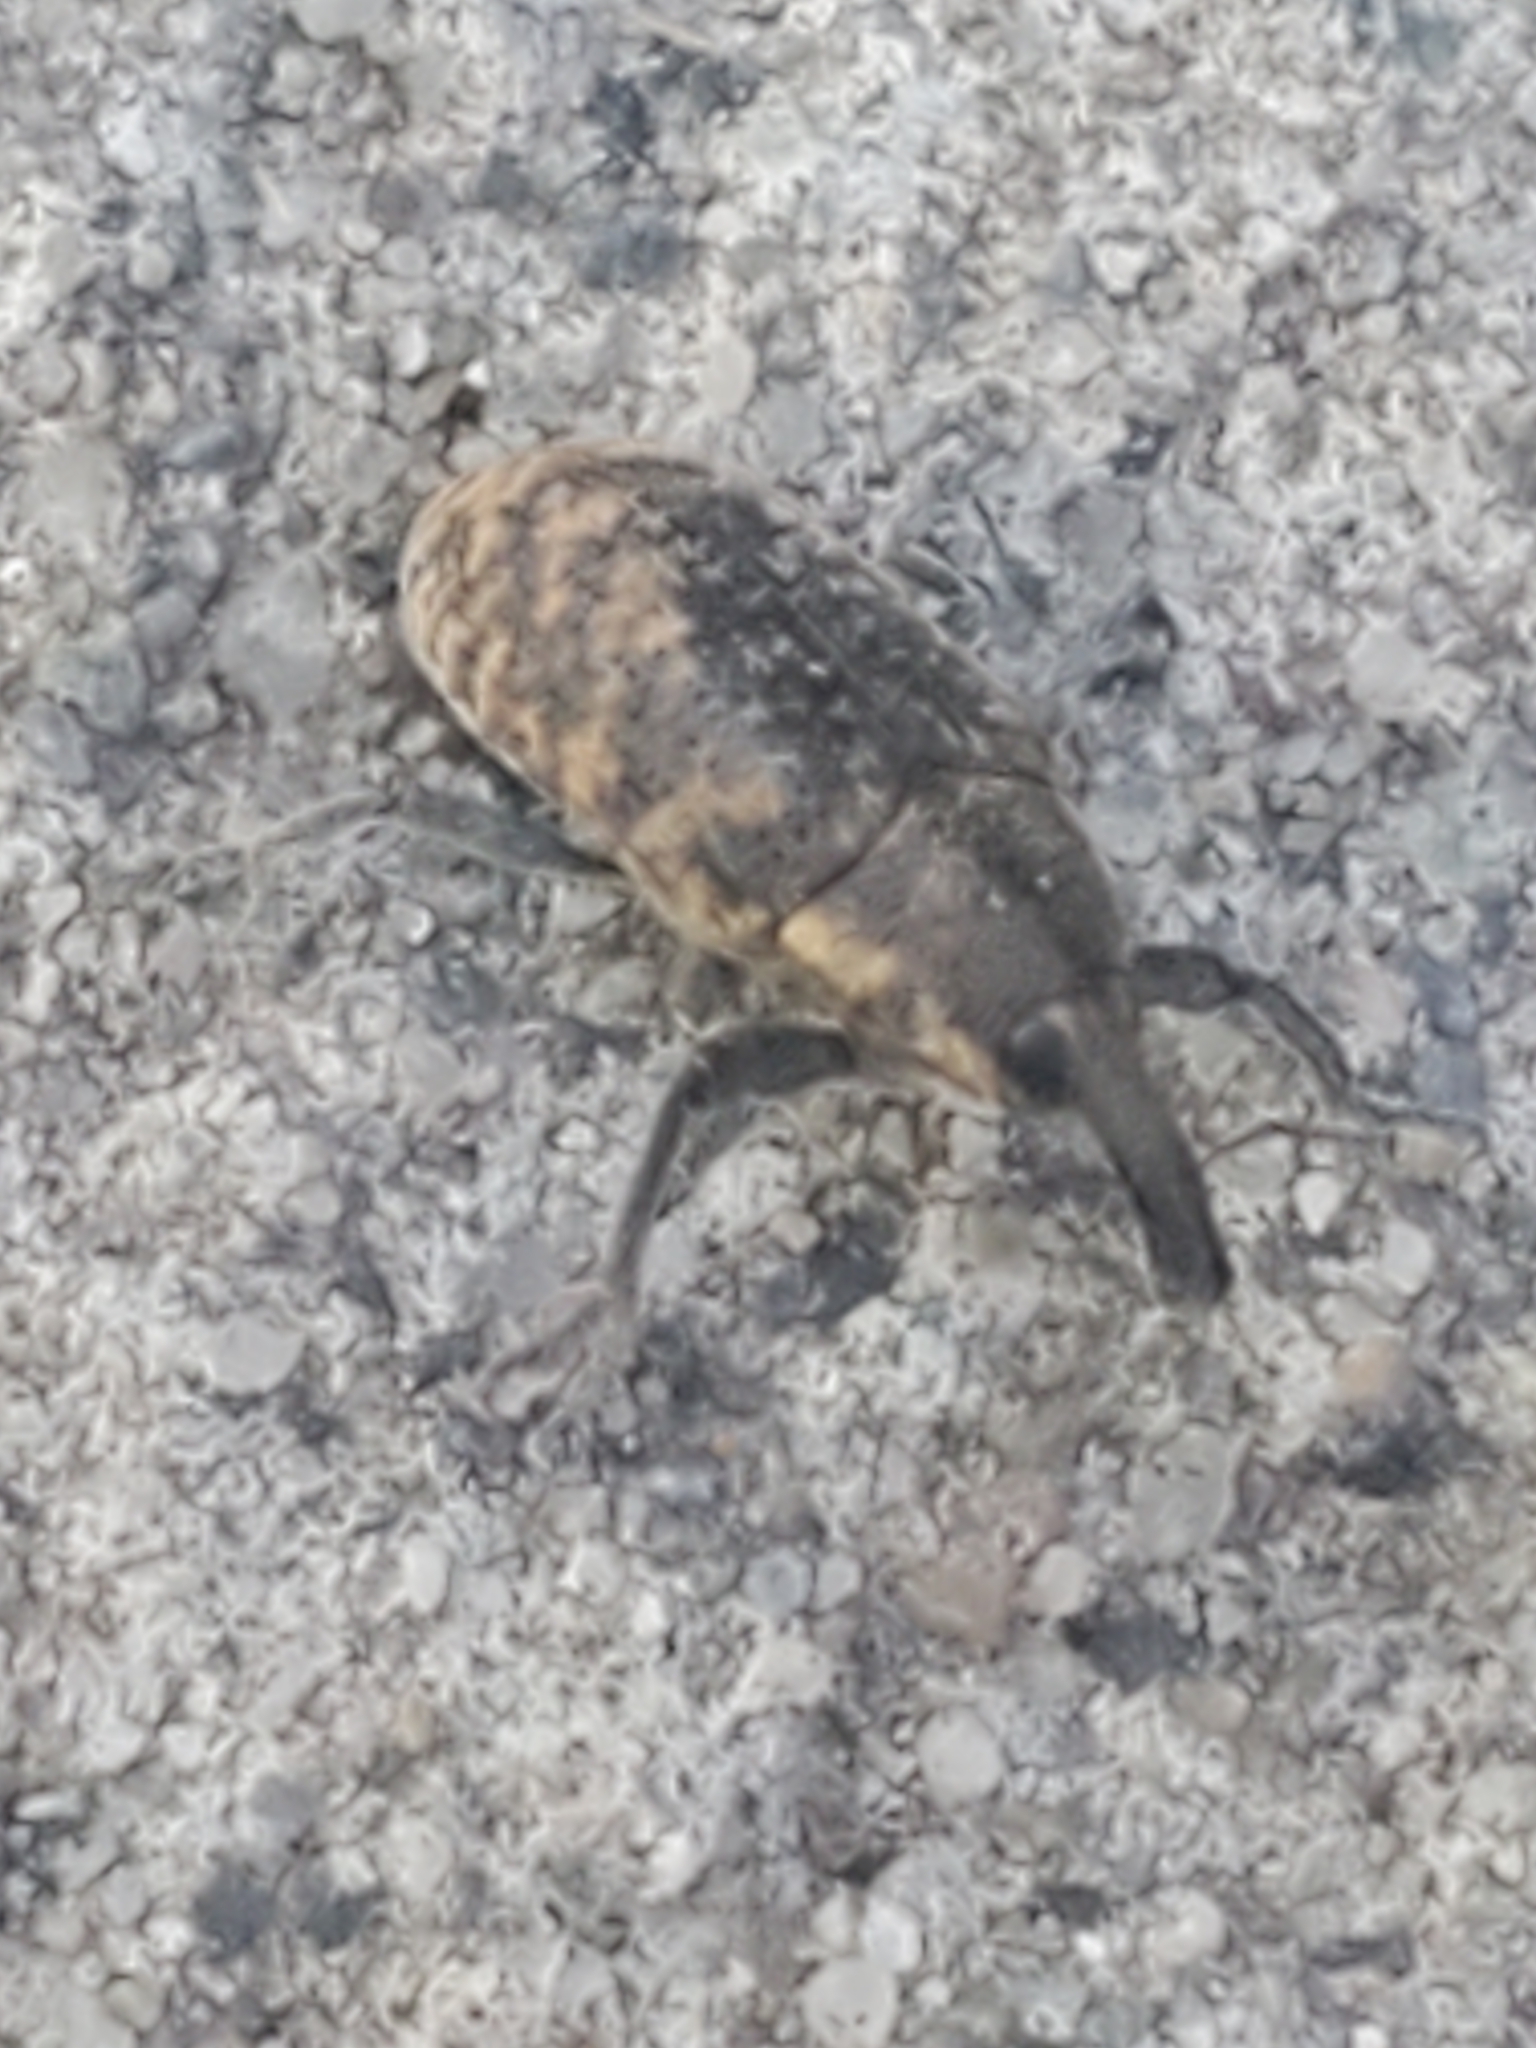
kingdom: Animalia
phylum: Arthropoda
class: Insecta
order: Coleoptera
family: Curculionidae
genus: Larinus
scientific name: Larinus carlinae
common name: Weevil
